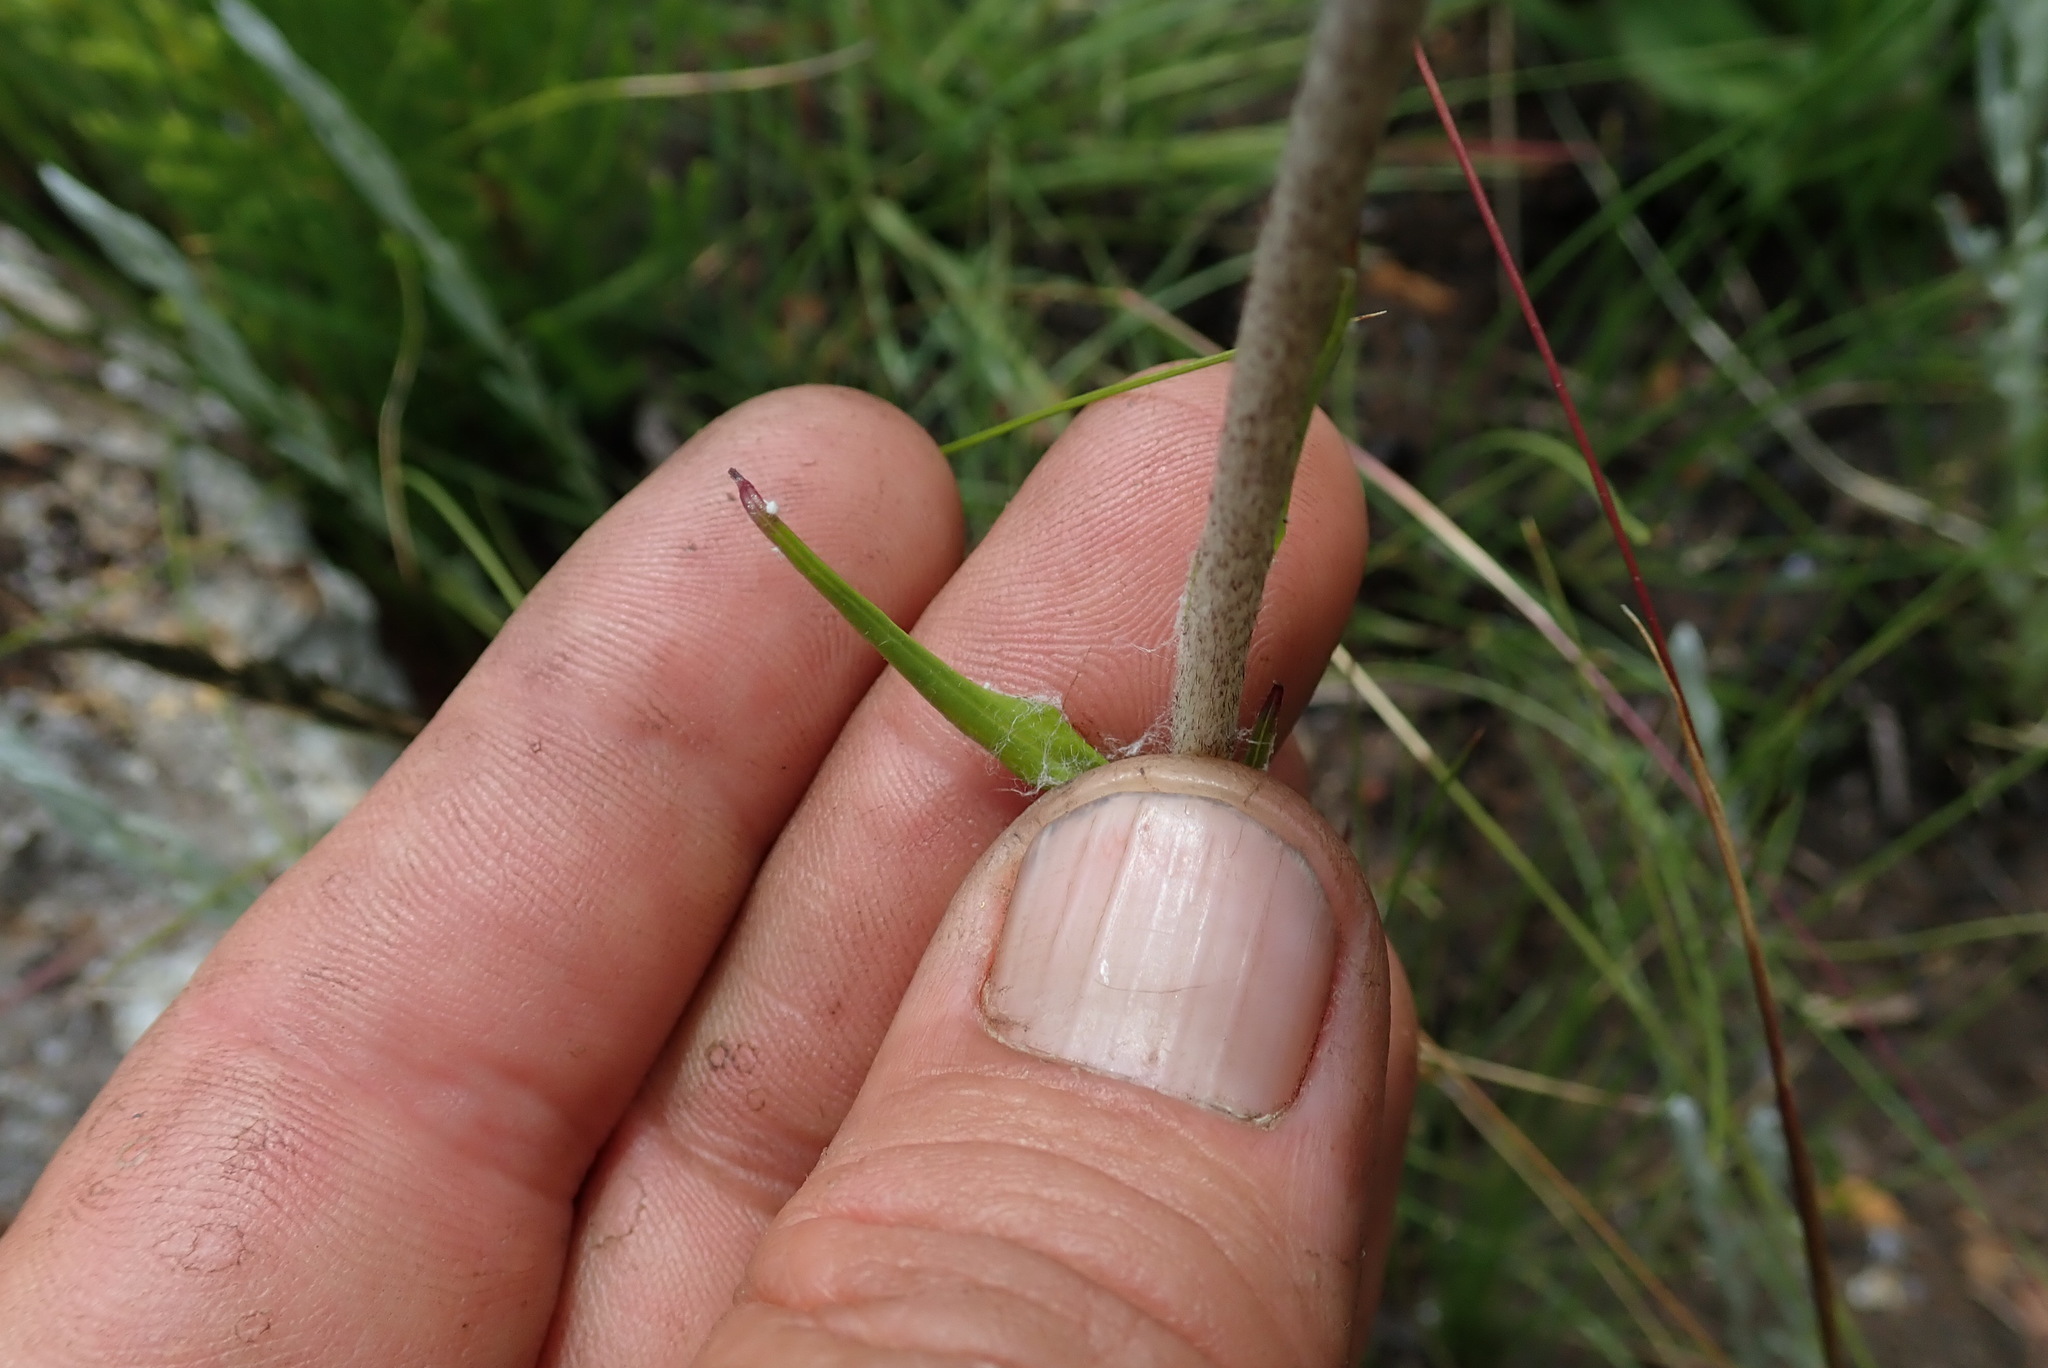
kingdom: Plantae
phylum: Tracheophyta
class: Magnoliopsida
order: Asterales
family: Asteraceae
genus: Helichrysum
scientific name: Helichrysum allioides
